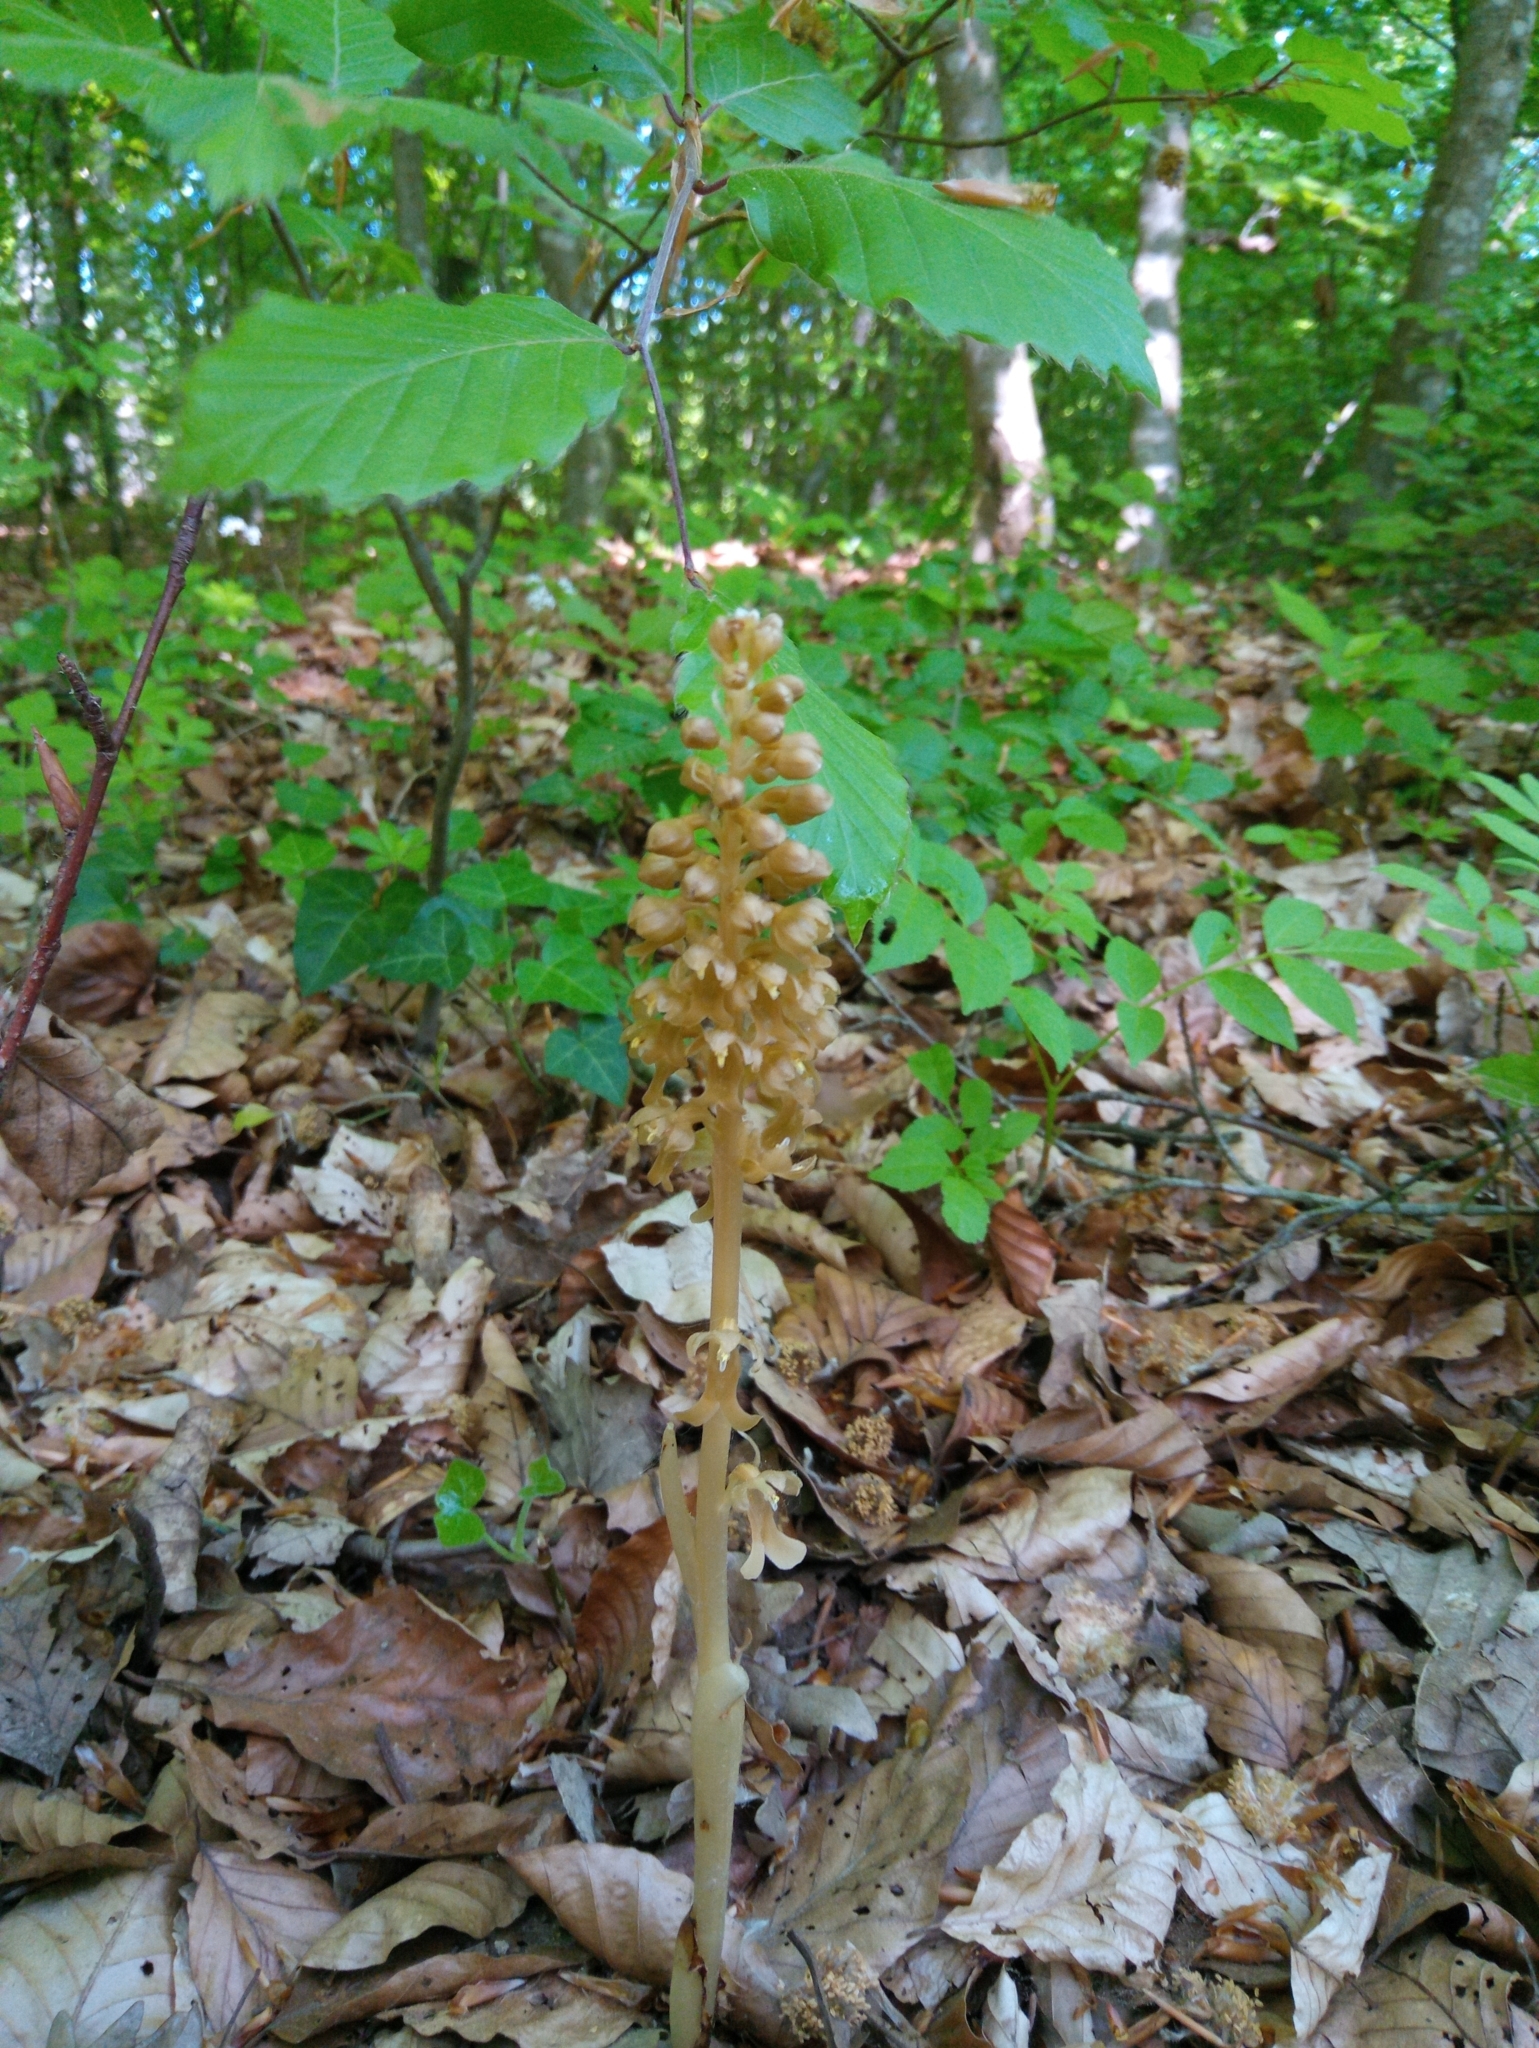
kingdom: Plantae
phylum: Tracheophyta
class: Liliopsida
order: Asparagales
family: Orchidaceae
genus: Neottia
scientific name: Neottia nidus-avis
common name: Bird's-nest orchid
